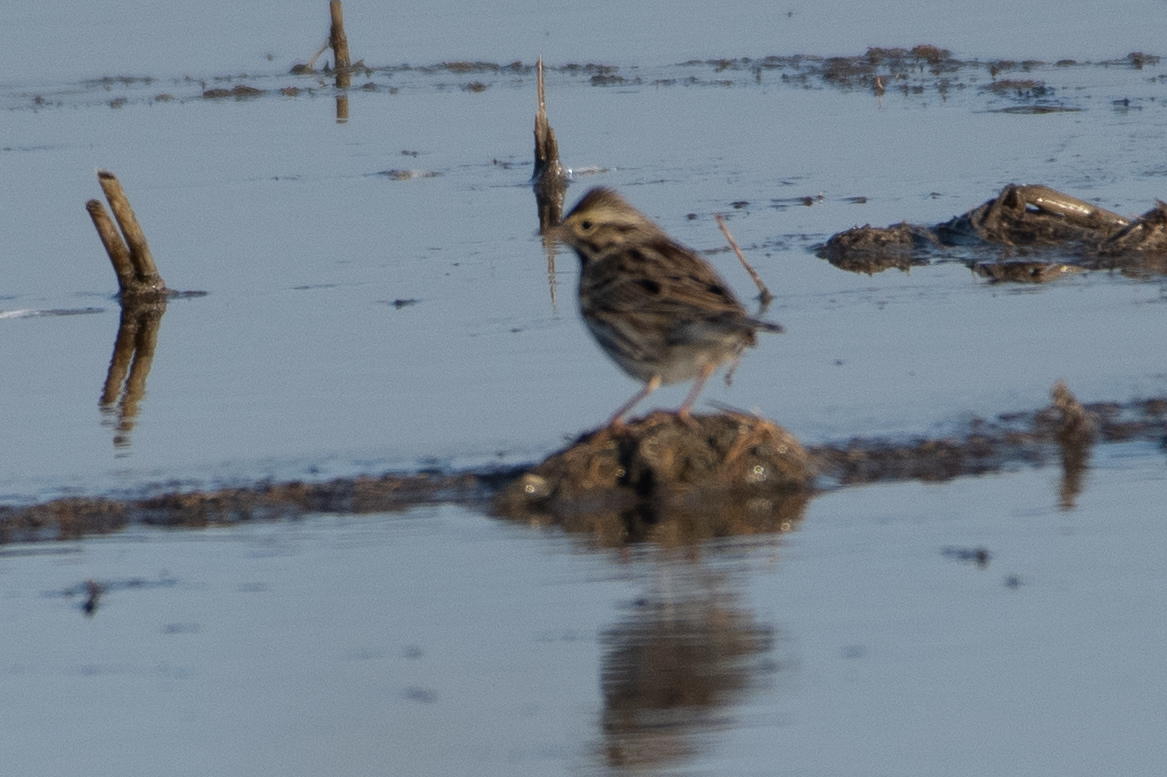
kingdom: Animalia
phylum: Chordata
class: Aves
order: Passeriformes
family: Passerellidae
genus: Passerculus
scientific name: Passerculus sandwichensis
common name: Savannah sparrow
